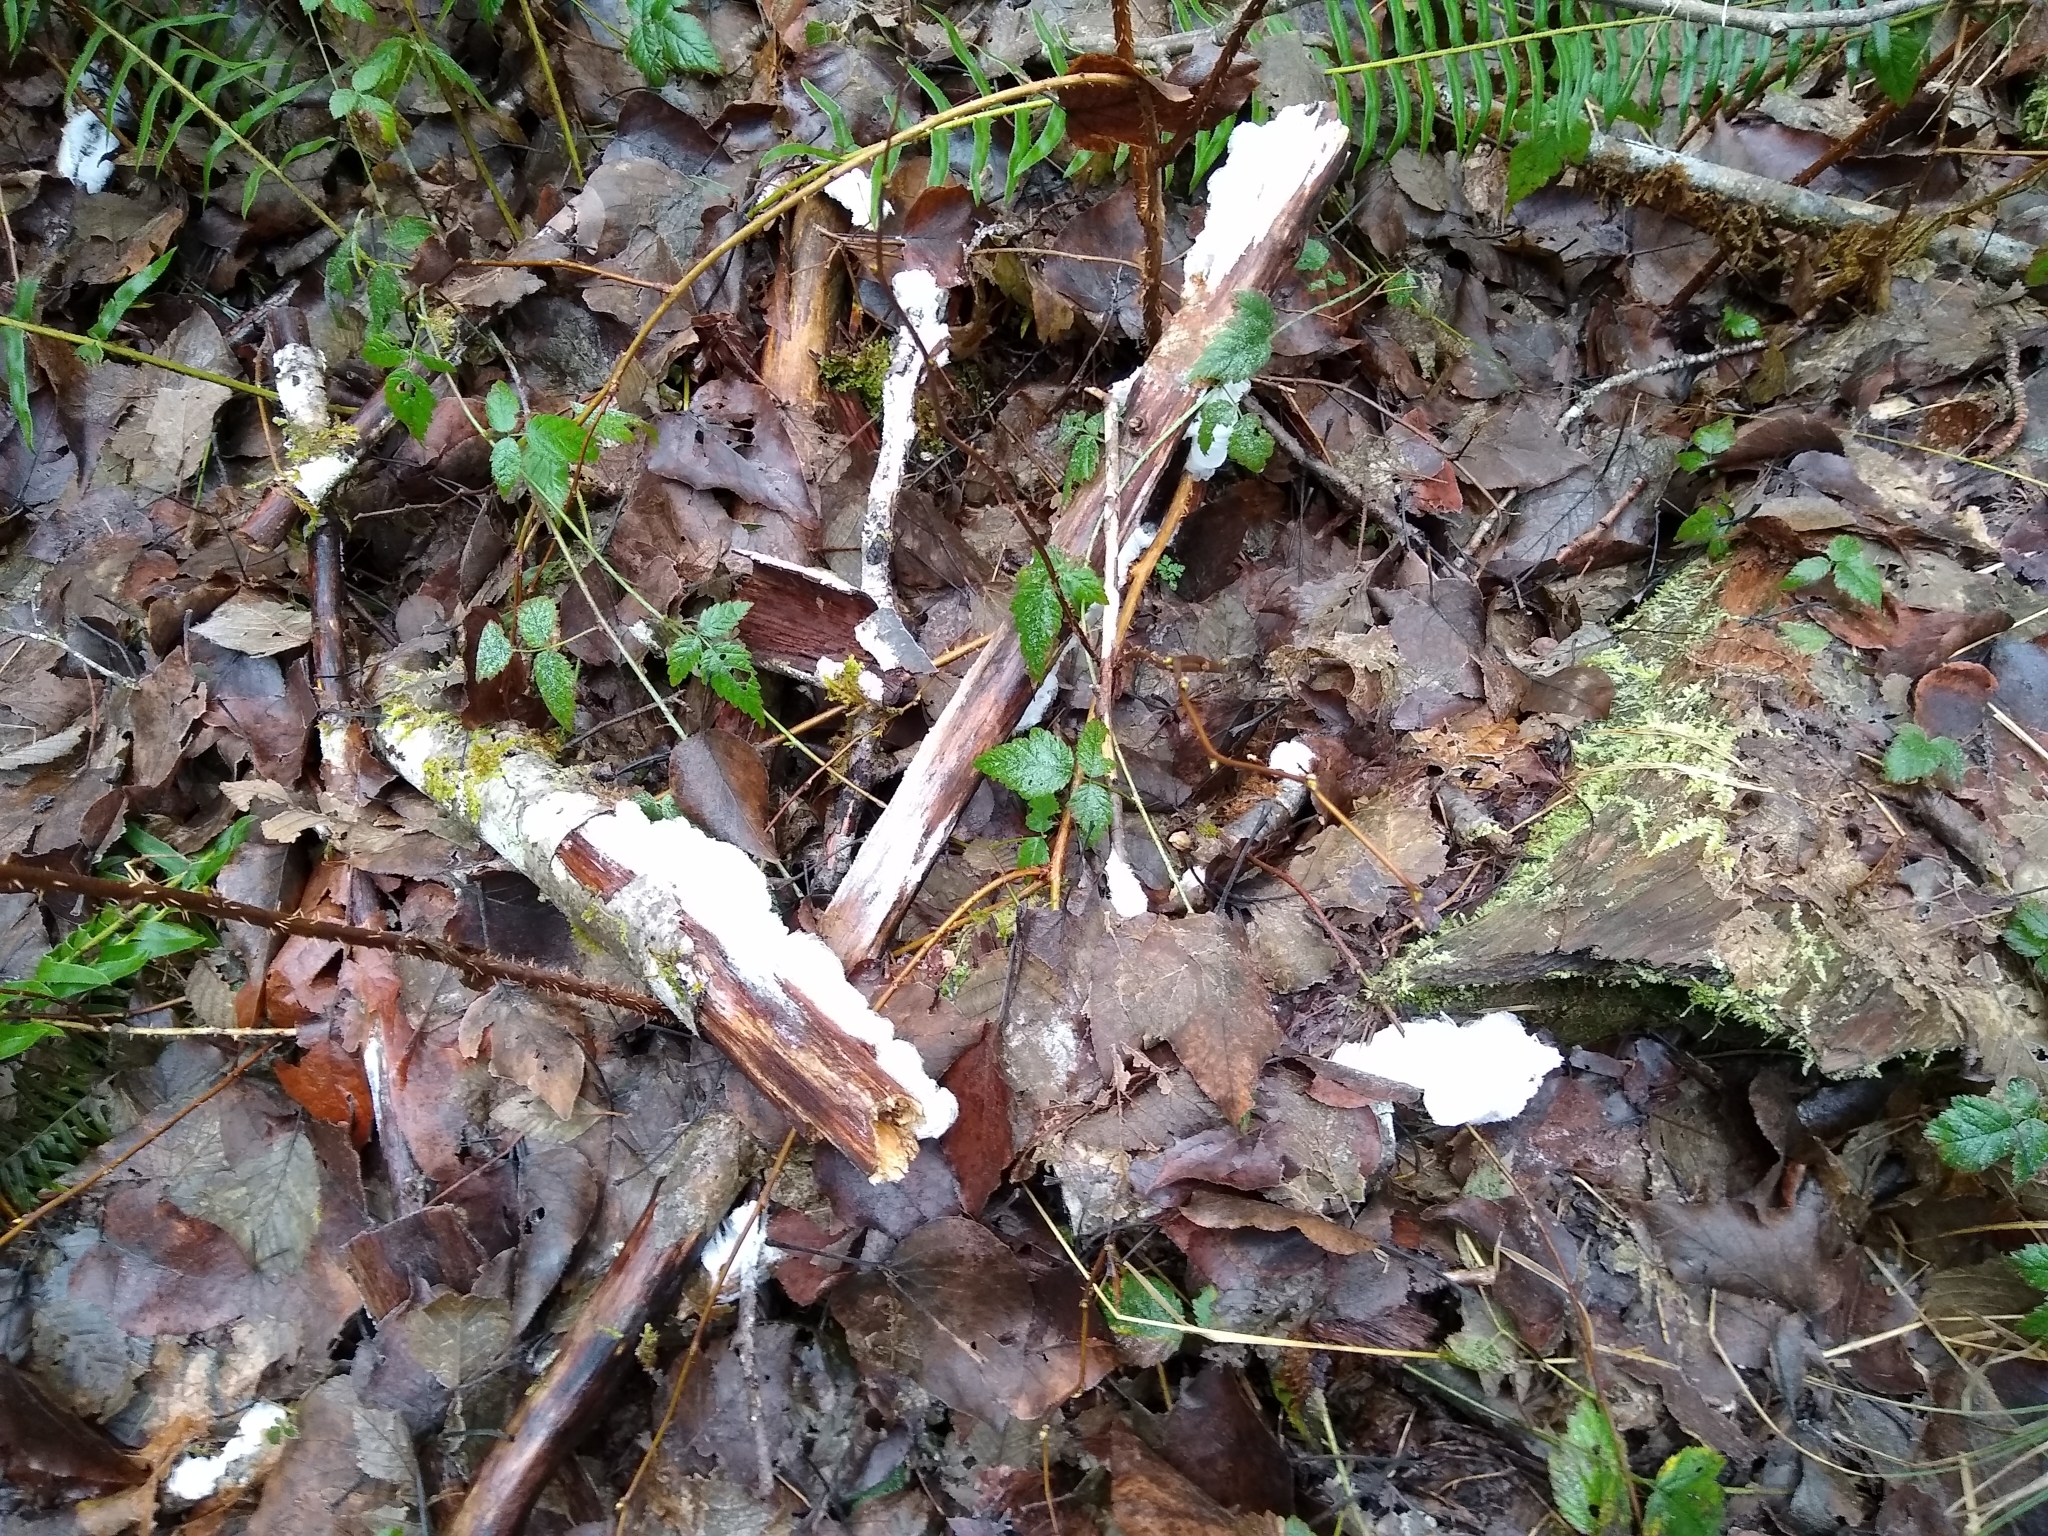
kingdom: Fungi
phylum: Basidiomycota
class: Agaricomycetes
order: Auriculariales
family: Auriculariaceae
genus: Exidiopsis
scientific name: Exidiopsis effusa
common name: Hair ice crust
